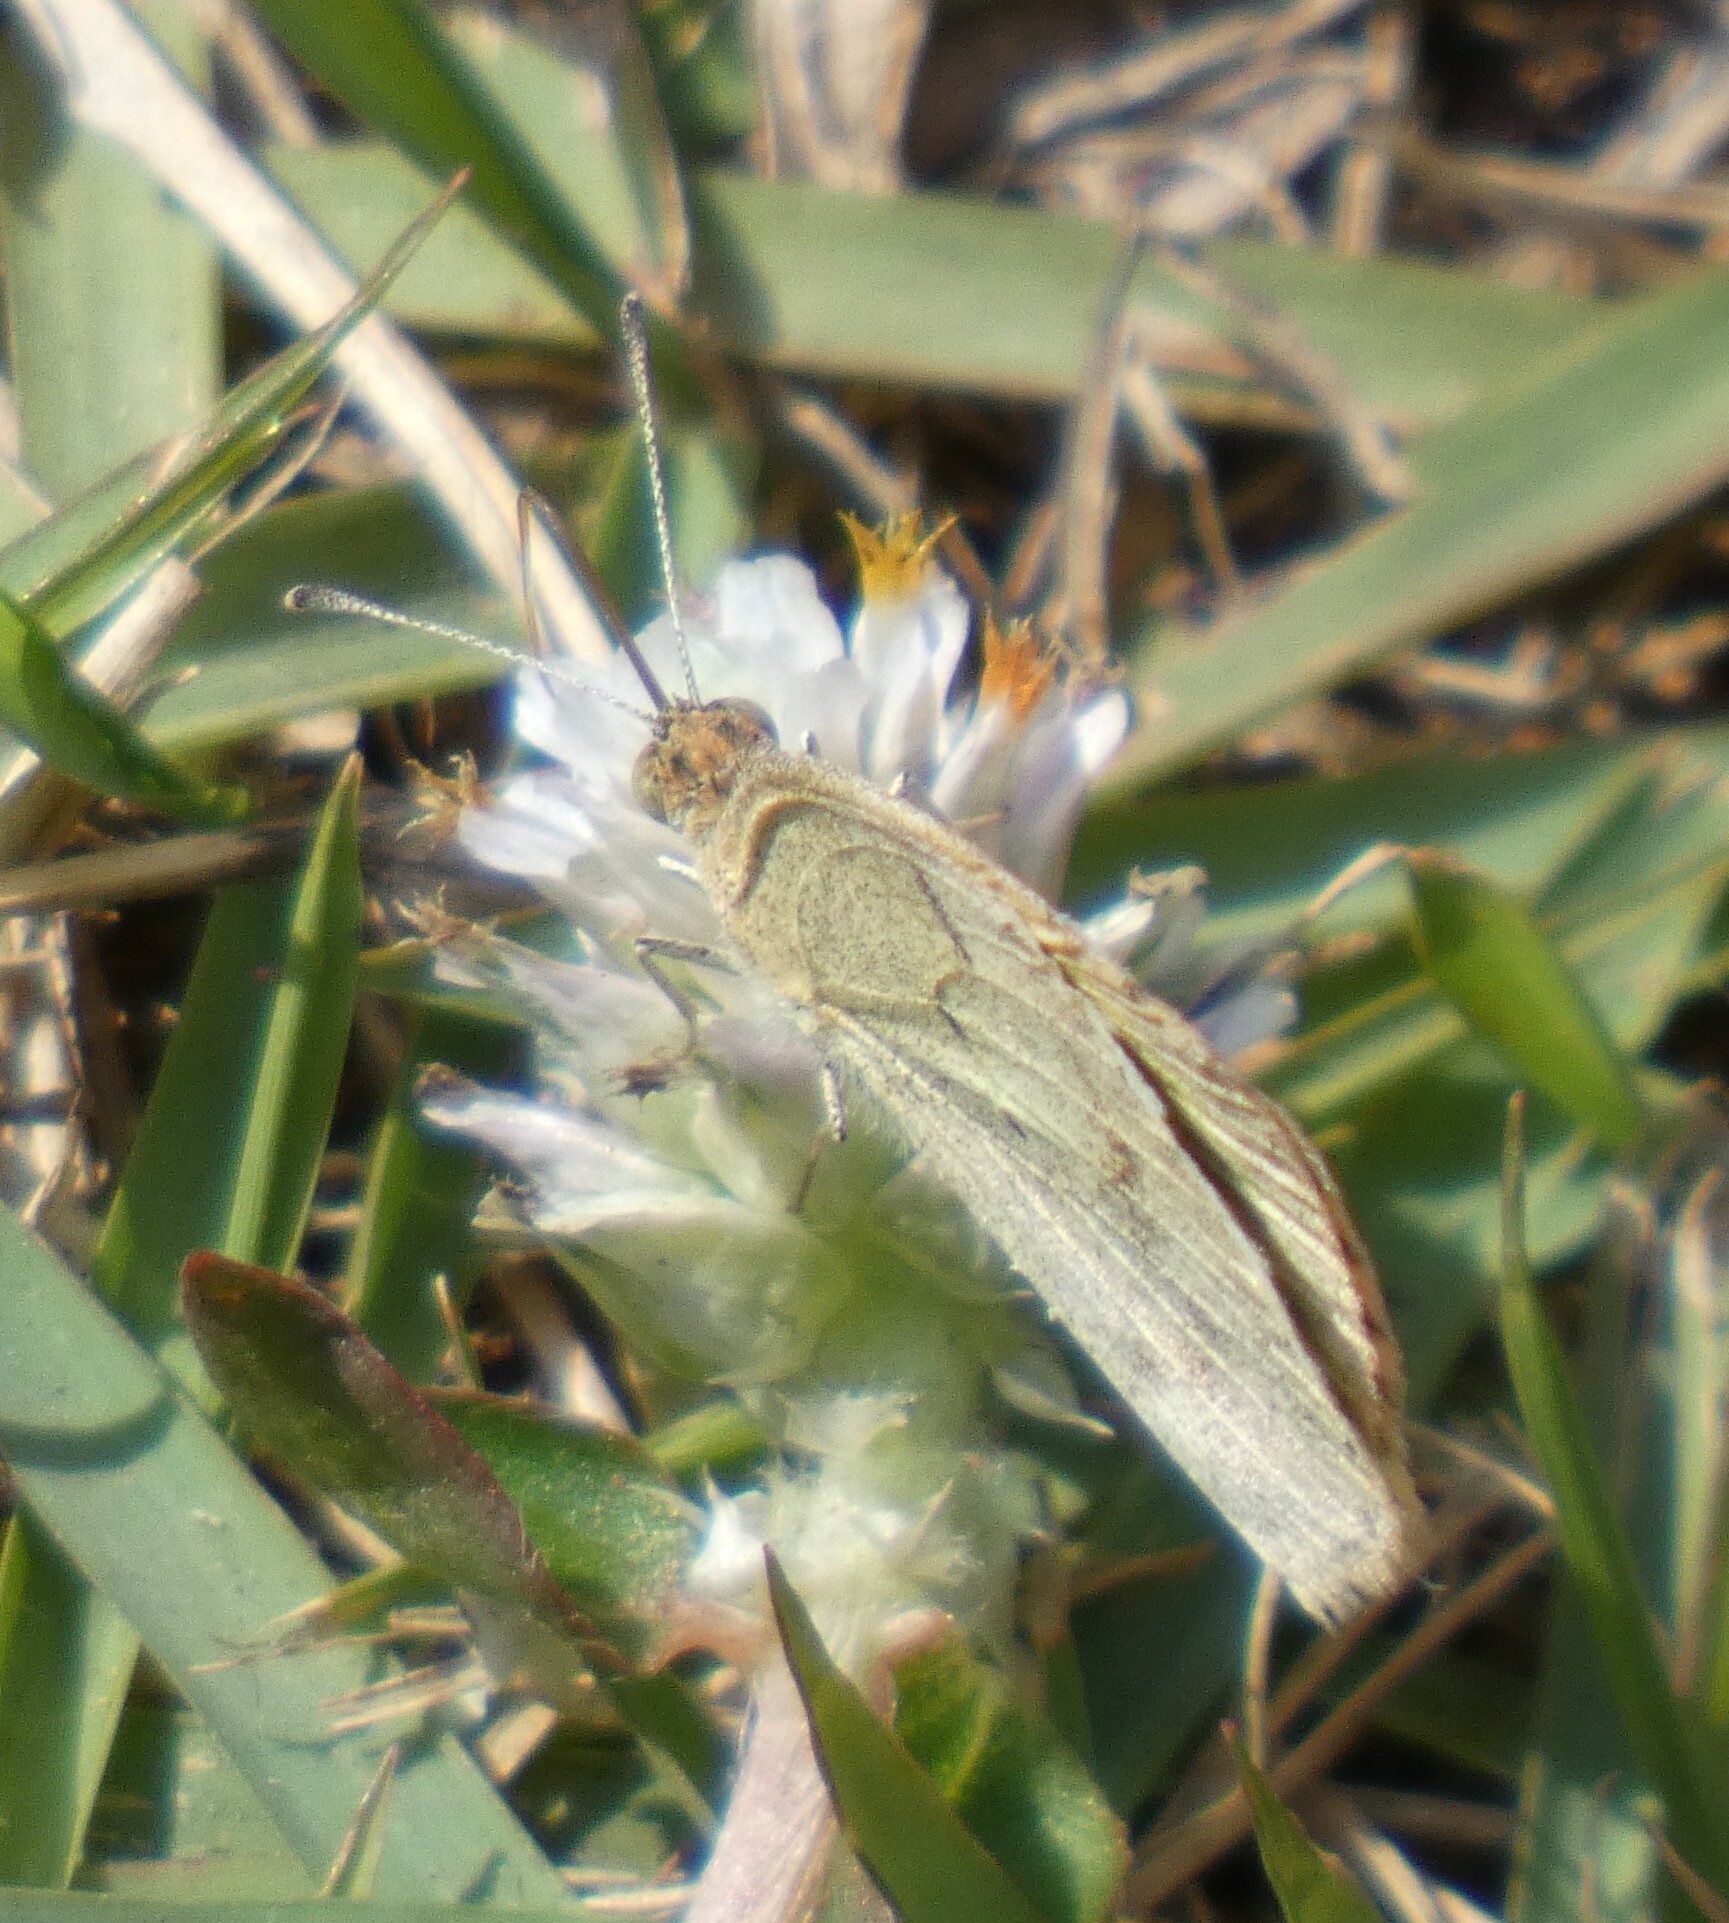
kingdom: Animalia
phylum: Arthropoda
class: Insecta
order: Lepidoptera
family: Pieridae
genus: Eurema
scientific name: Eurema elathea
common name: Banded yellow
